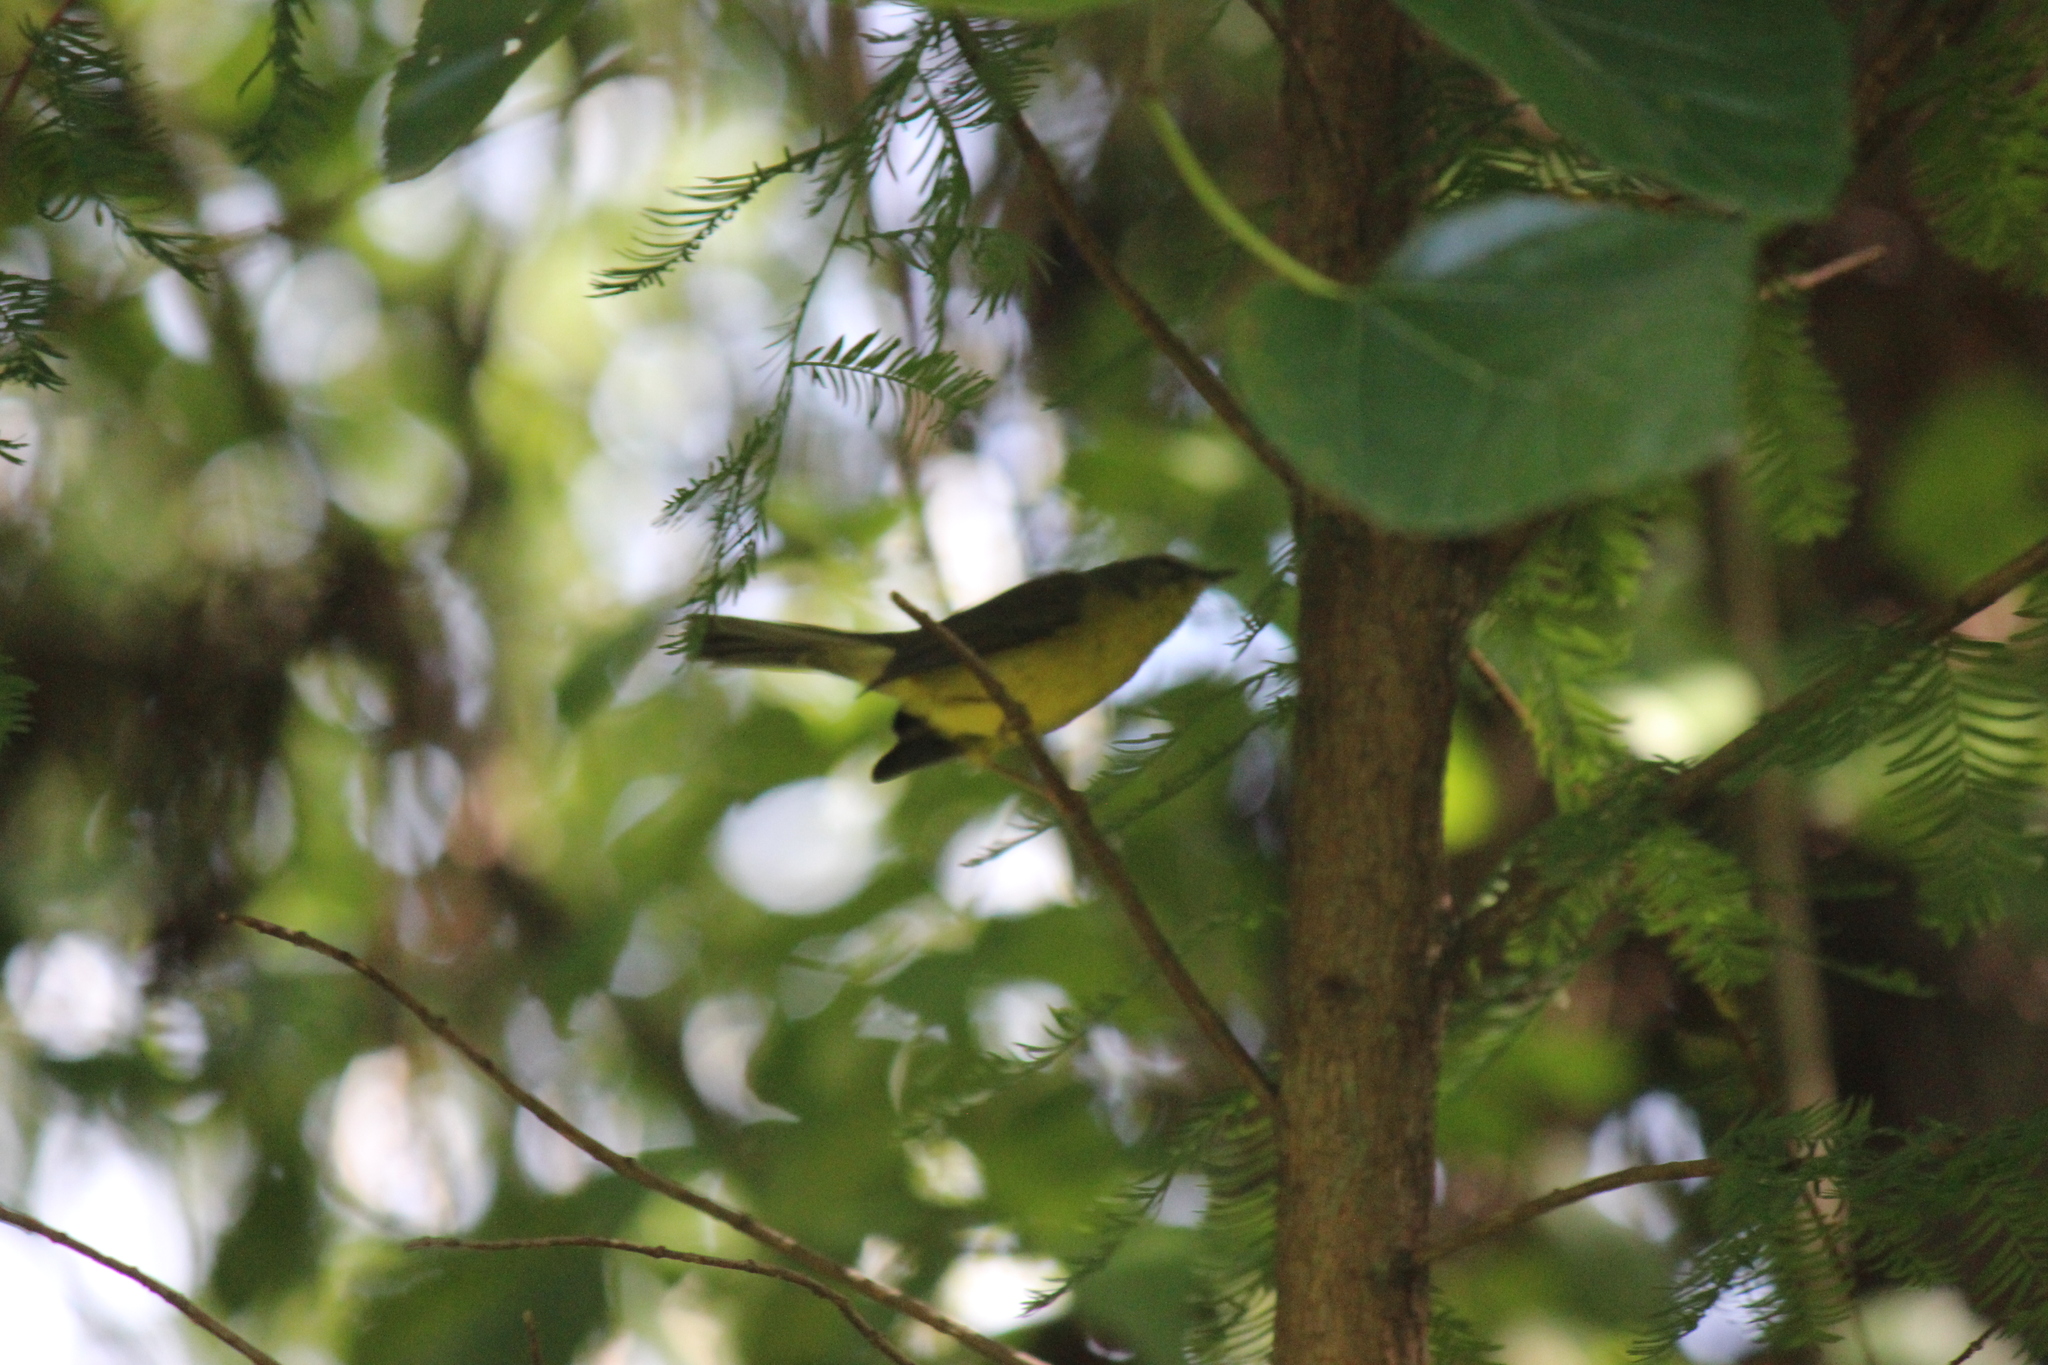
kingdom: Animalia
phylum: Chordata
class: Aves
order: Passeriformes
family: Parulidae
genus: Basileuterus
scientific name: Basileuterus culicivorus
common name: Golden-crowned warbler
